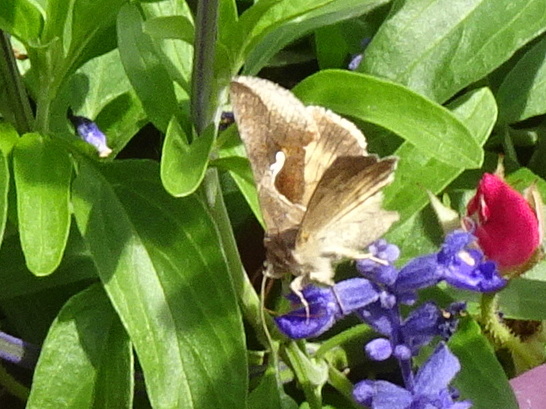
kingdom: Animalia
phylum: Arthropoda
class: Insecta
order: Lepidoptera
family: Noctuidae
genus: Anagrapha
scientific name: Anagrapha falcifera
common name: Celery looper
